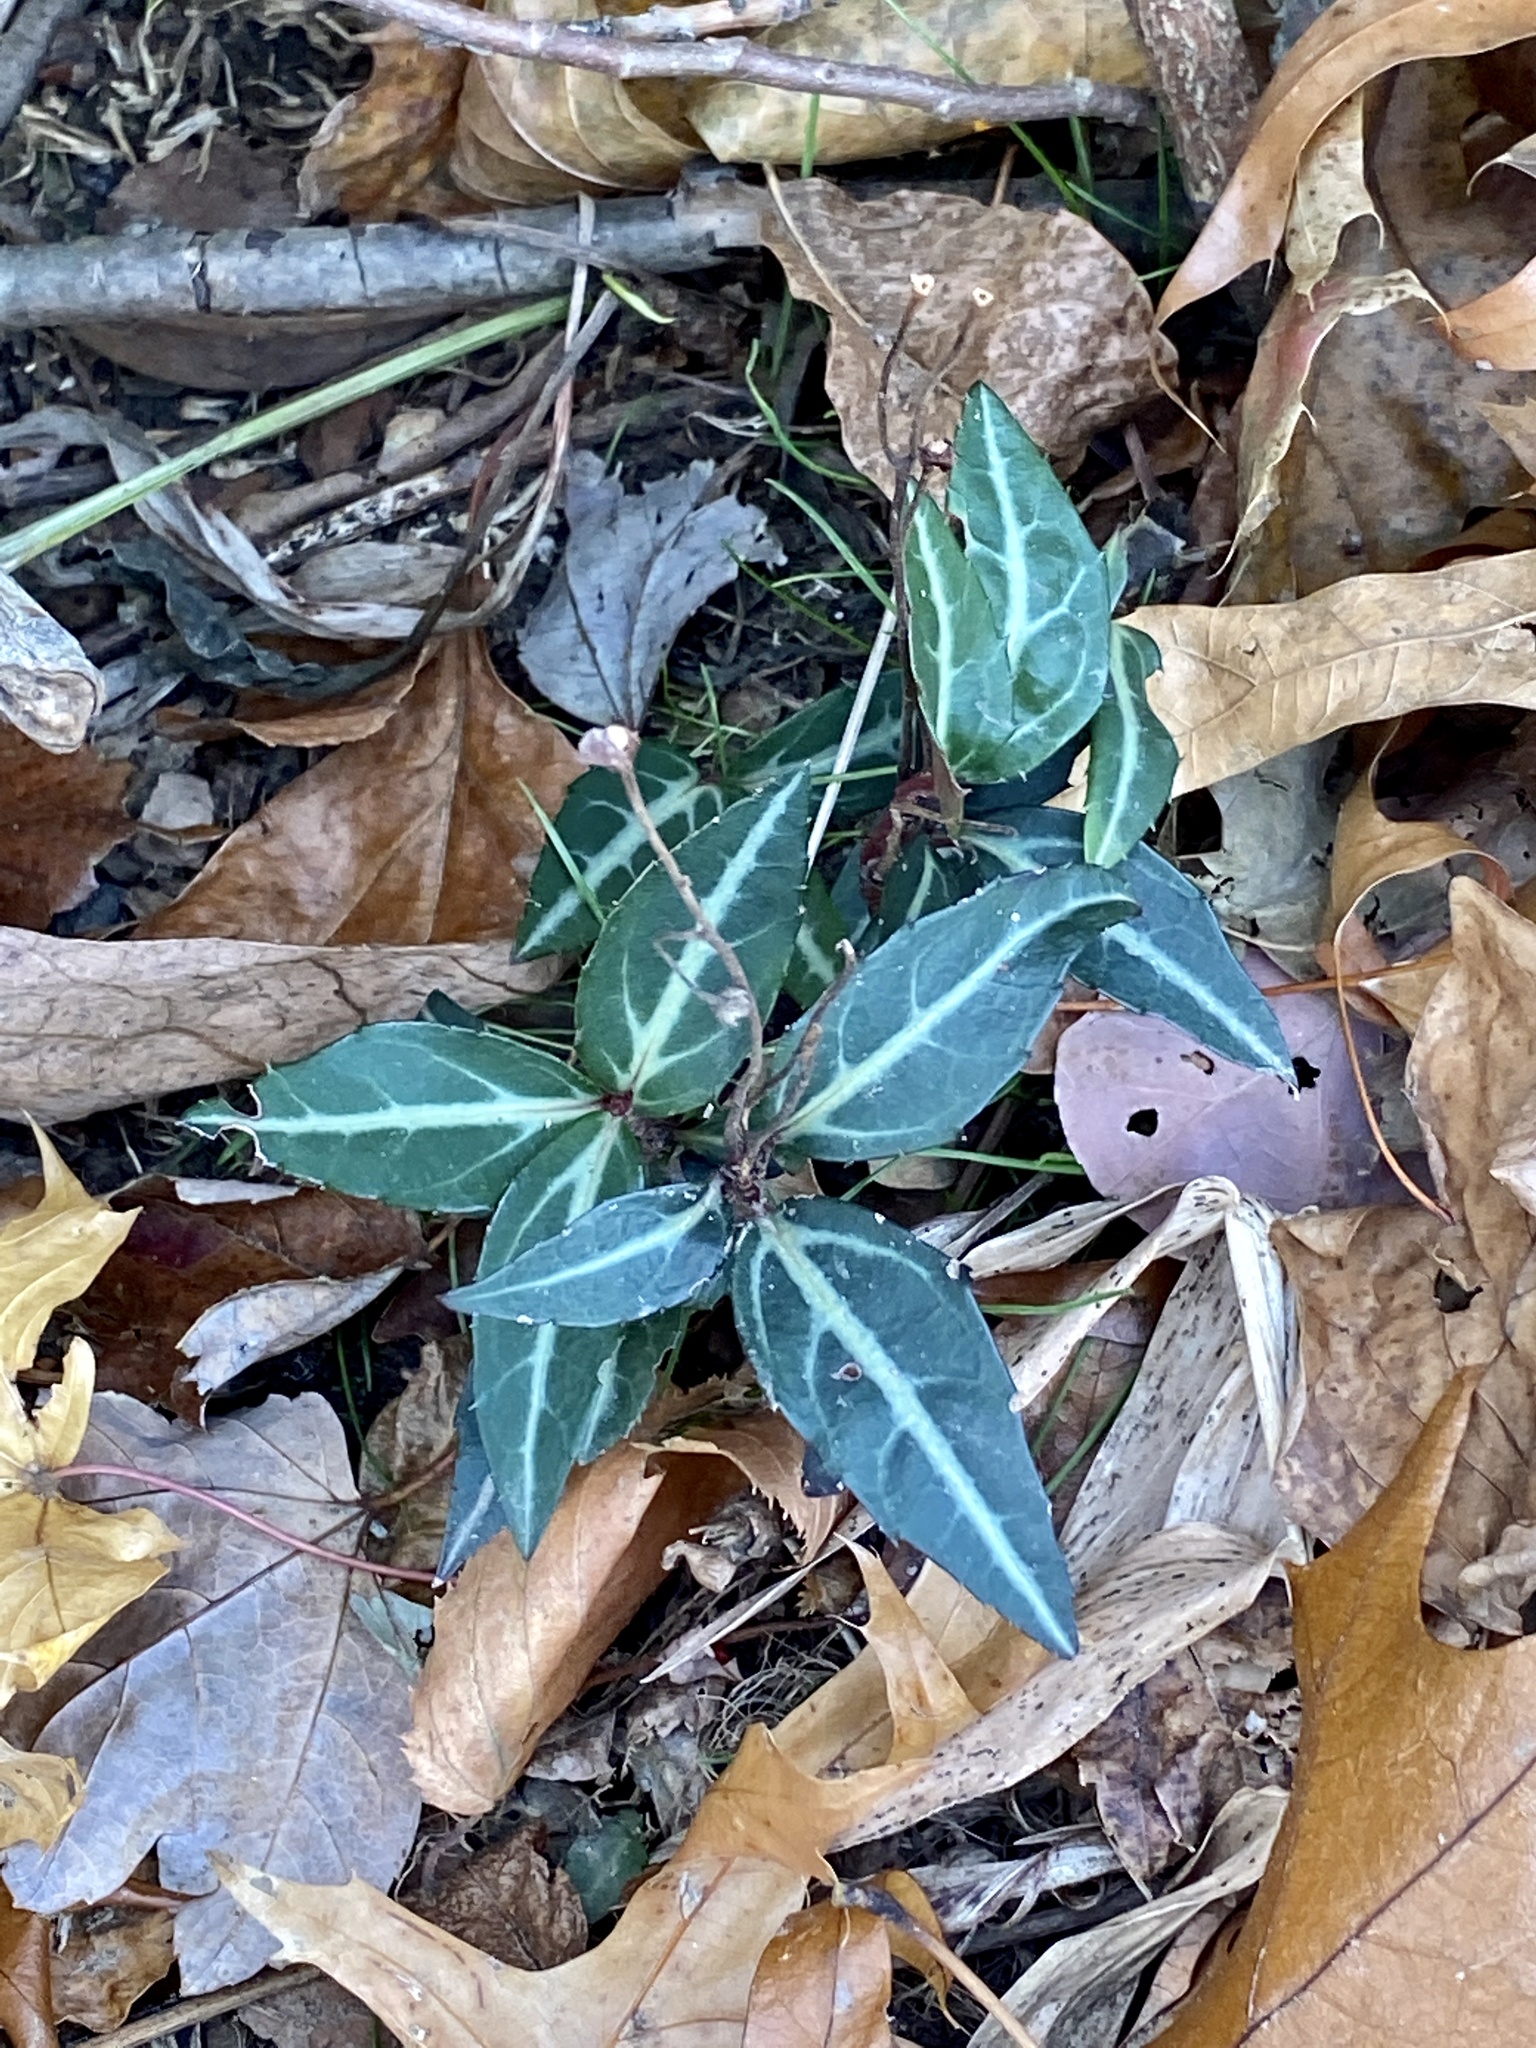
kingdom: Plantae
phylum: Tracheophyta
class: Magnoliopsida
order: Ericales
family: Ericaceae
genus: Chimaphila
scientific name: Chimaphila maculata
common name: Spotted pipsissewa
